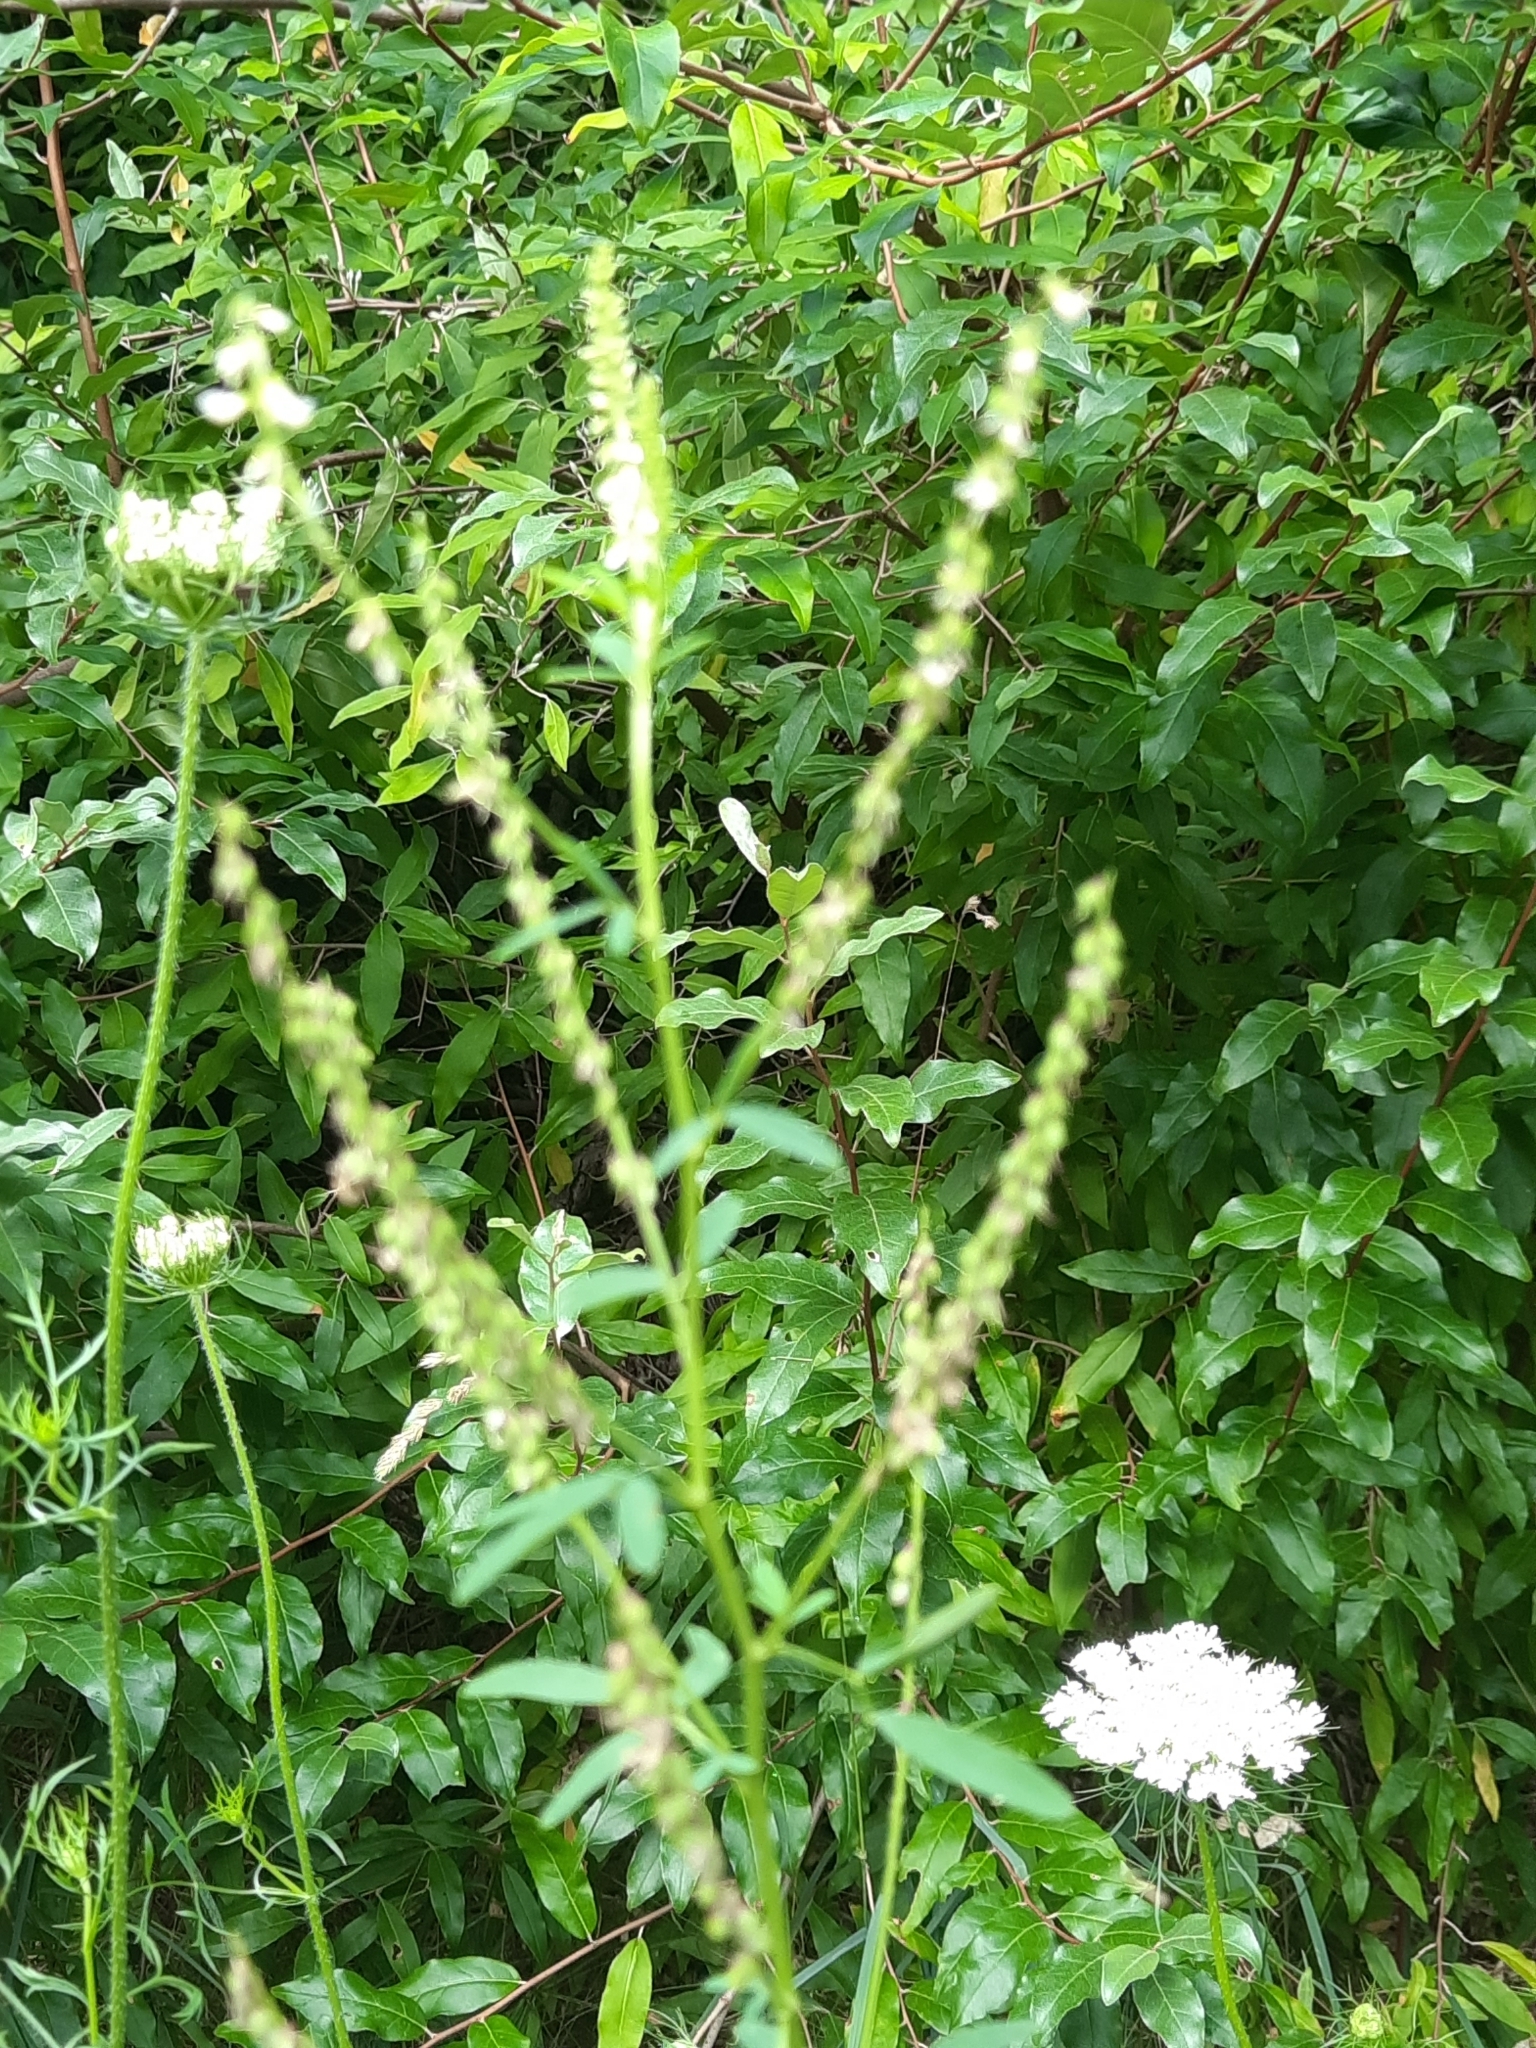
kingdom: Plantae
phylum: Tracheophyta
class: Magnoliopsida
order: Fabales
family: Fabaceae
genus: Melilotus
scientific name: Melilotus albus
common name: White melilot
